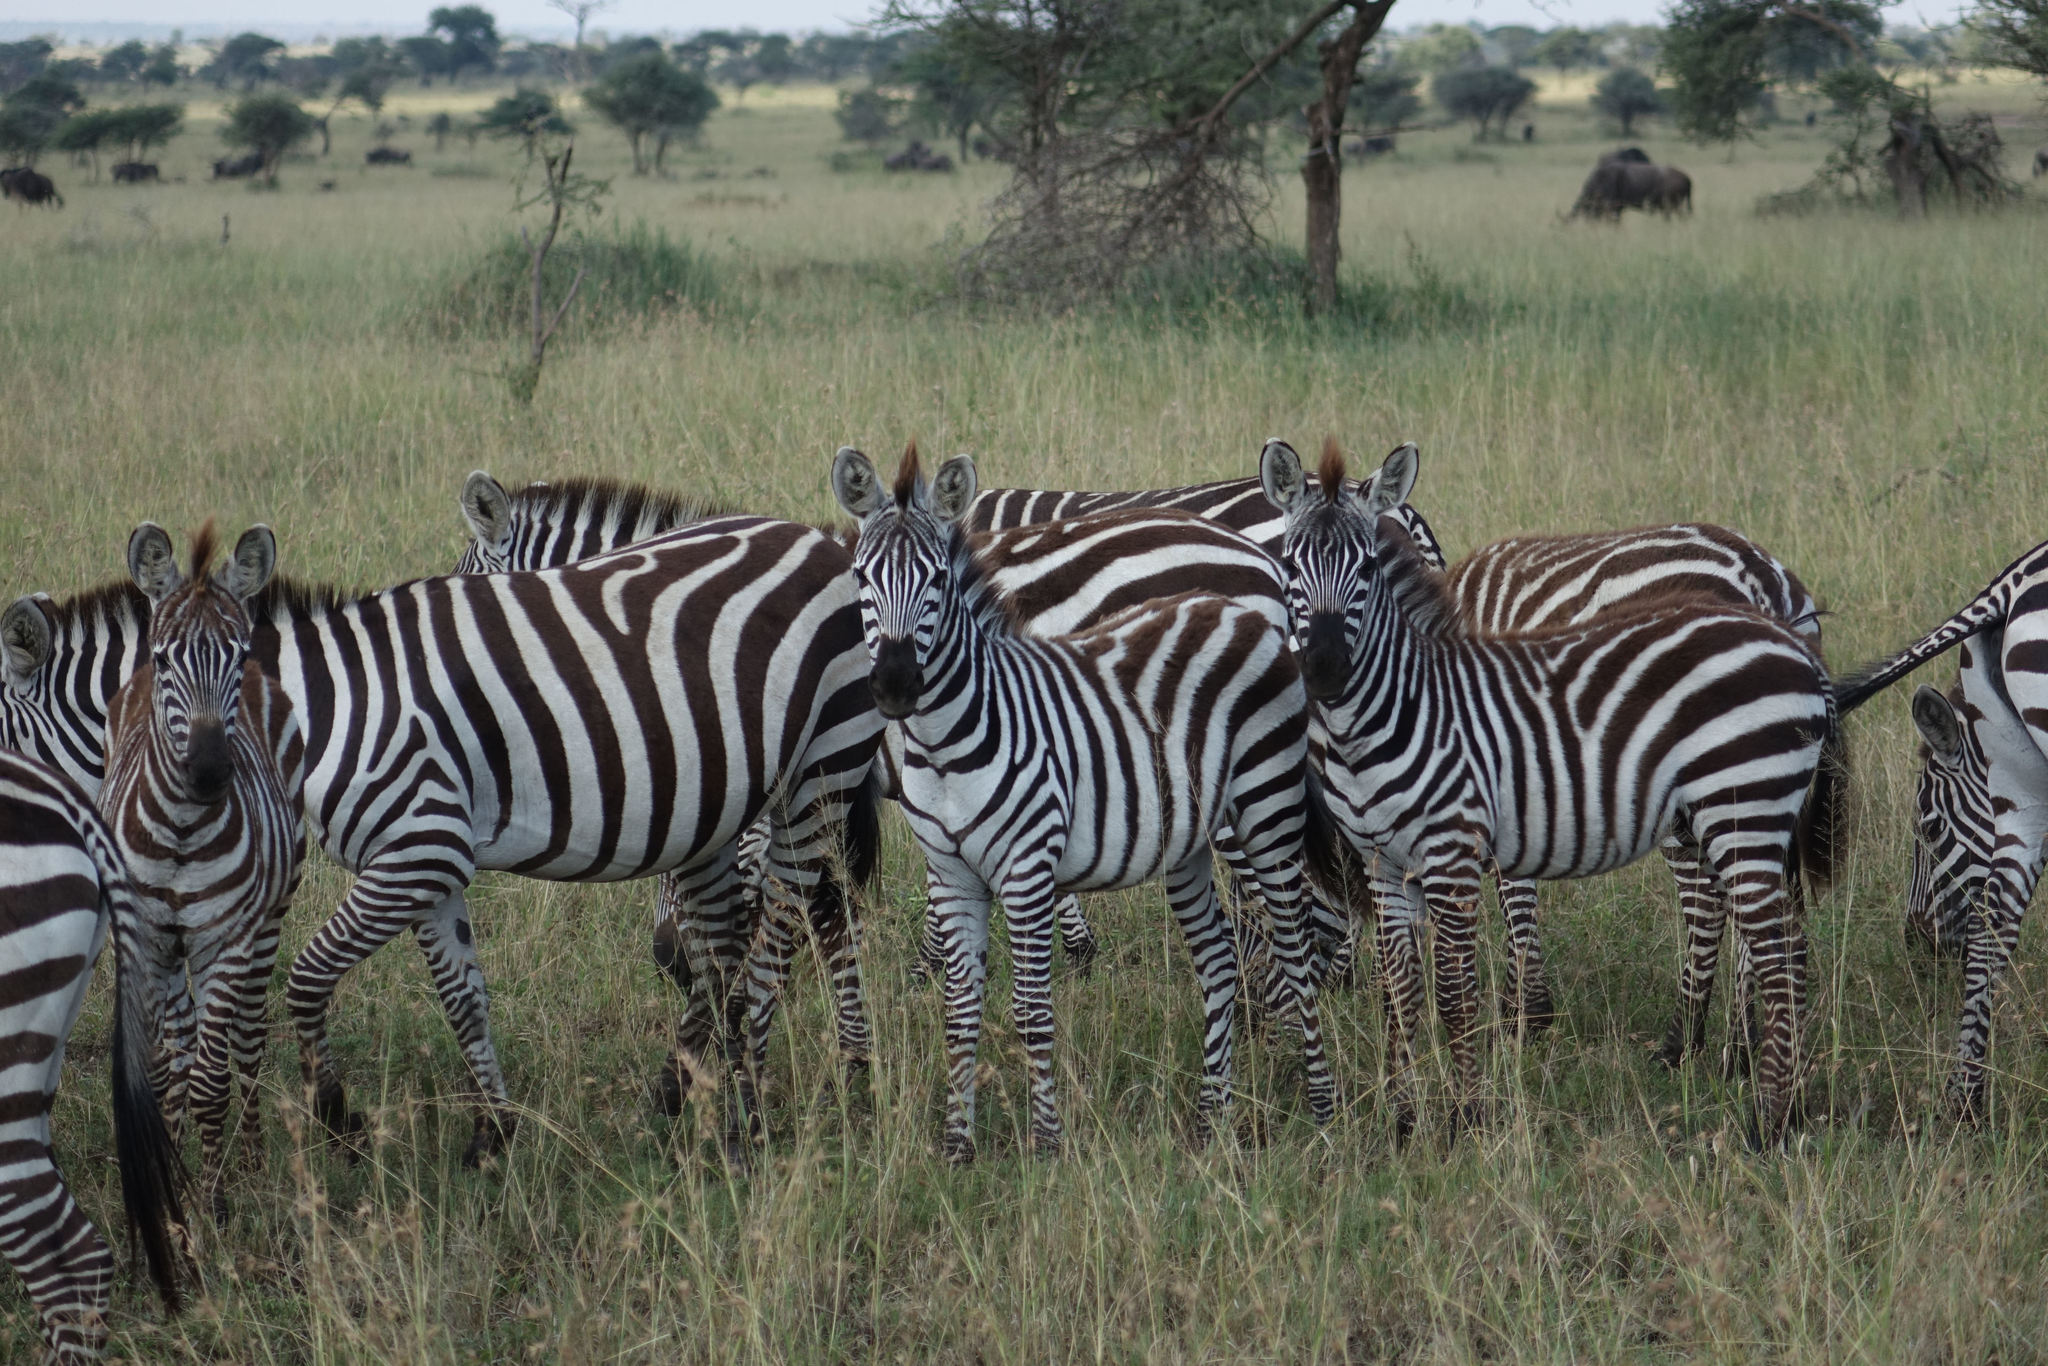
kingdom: Animalia
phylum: Chordata
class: Mammalia
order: Perissodactyla
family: Equidae
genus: Equus
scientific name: Equus quagga
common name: Plains zebra
